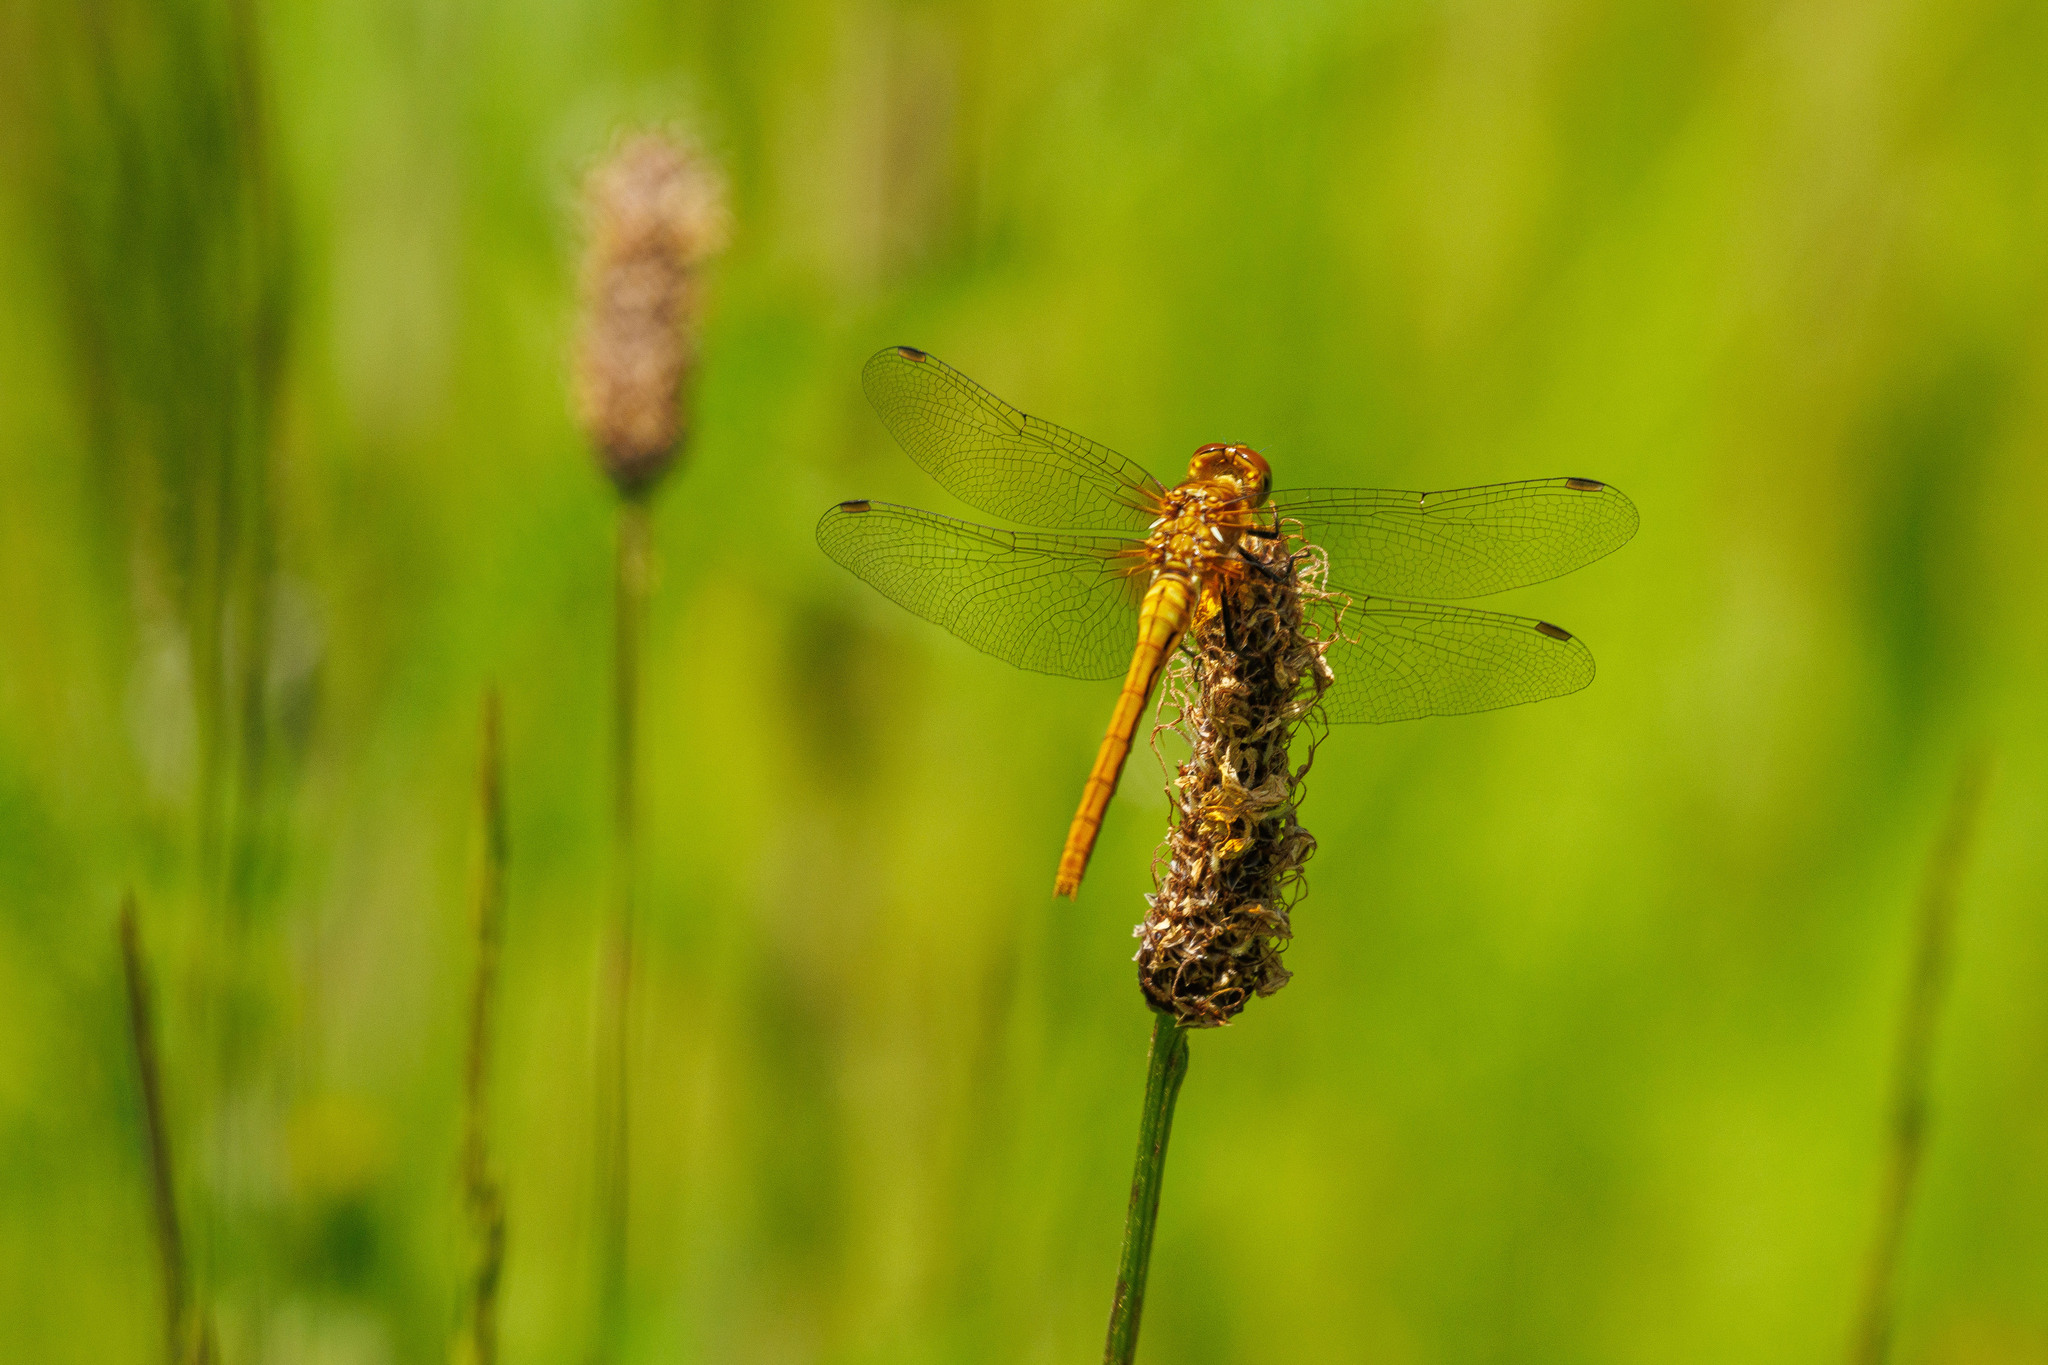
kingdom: Animalia
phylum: Arthropoda
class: Insecta
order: Odonata
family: Libellulidae
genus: Sympetrum
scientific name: Sympetrum pallipes
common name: Striped meadowhawk
